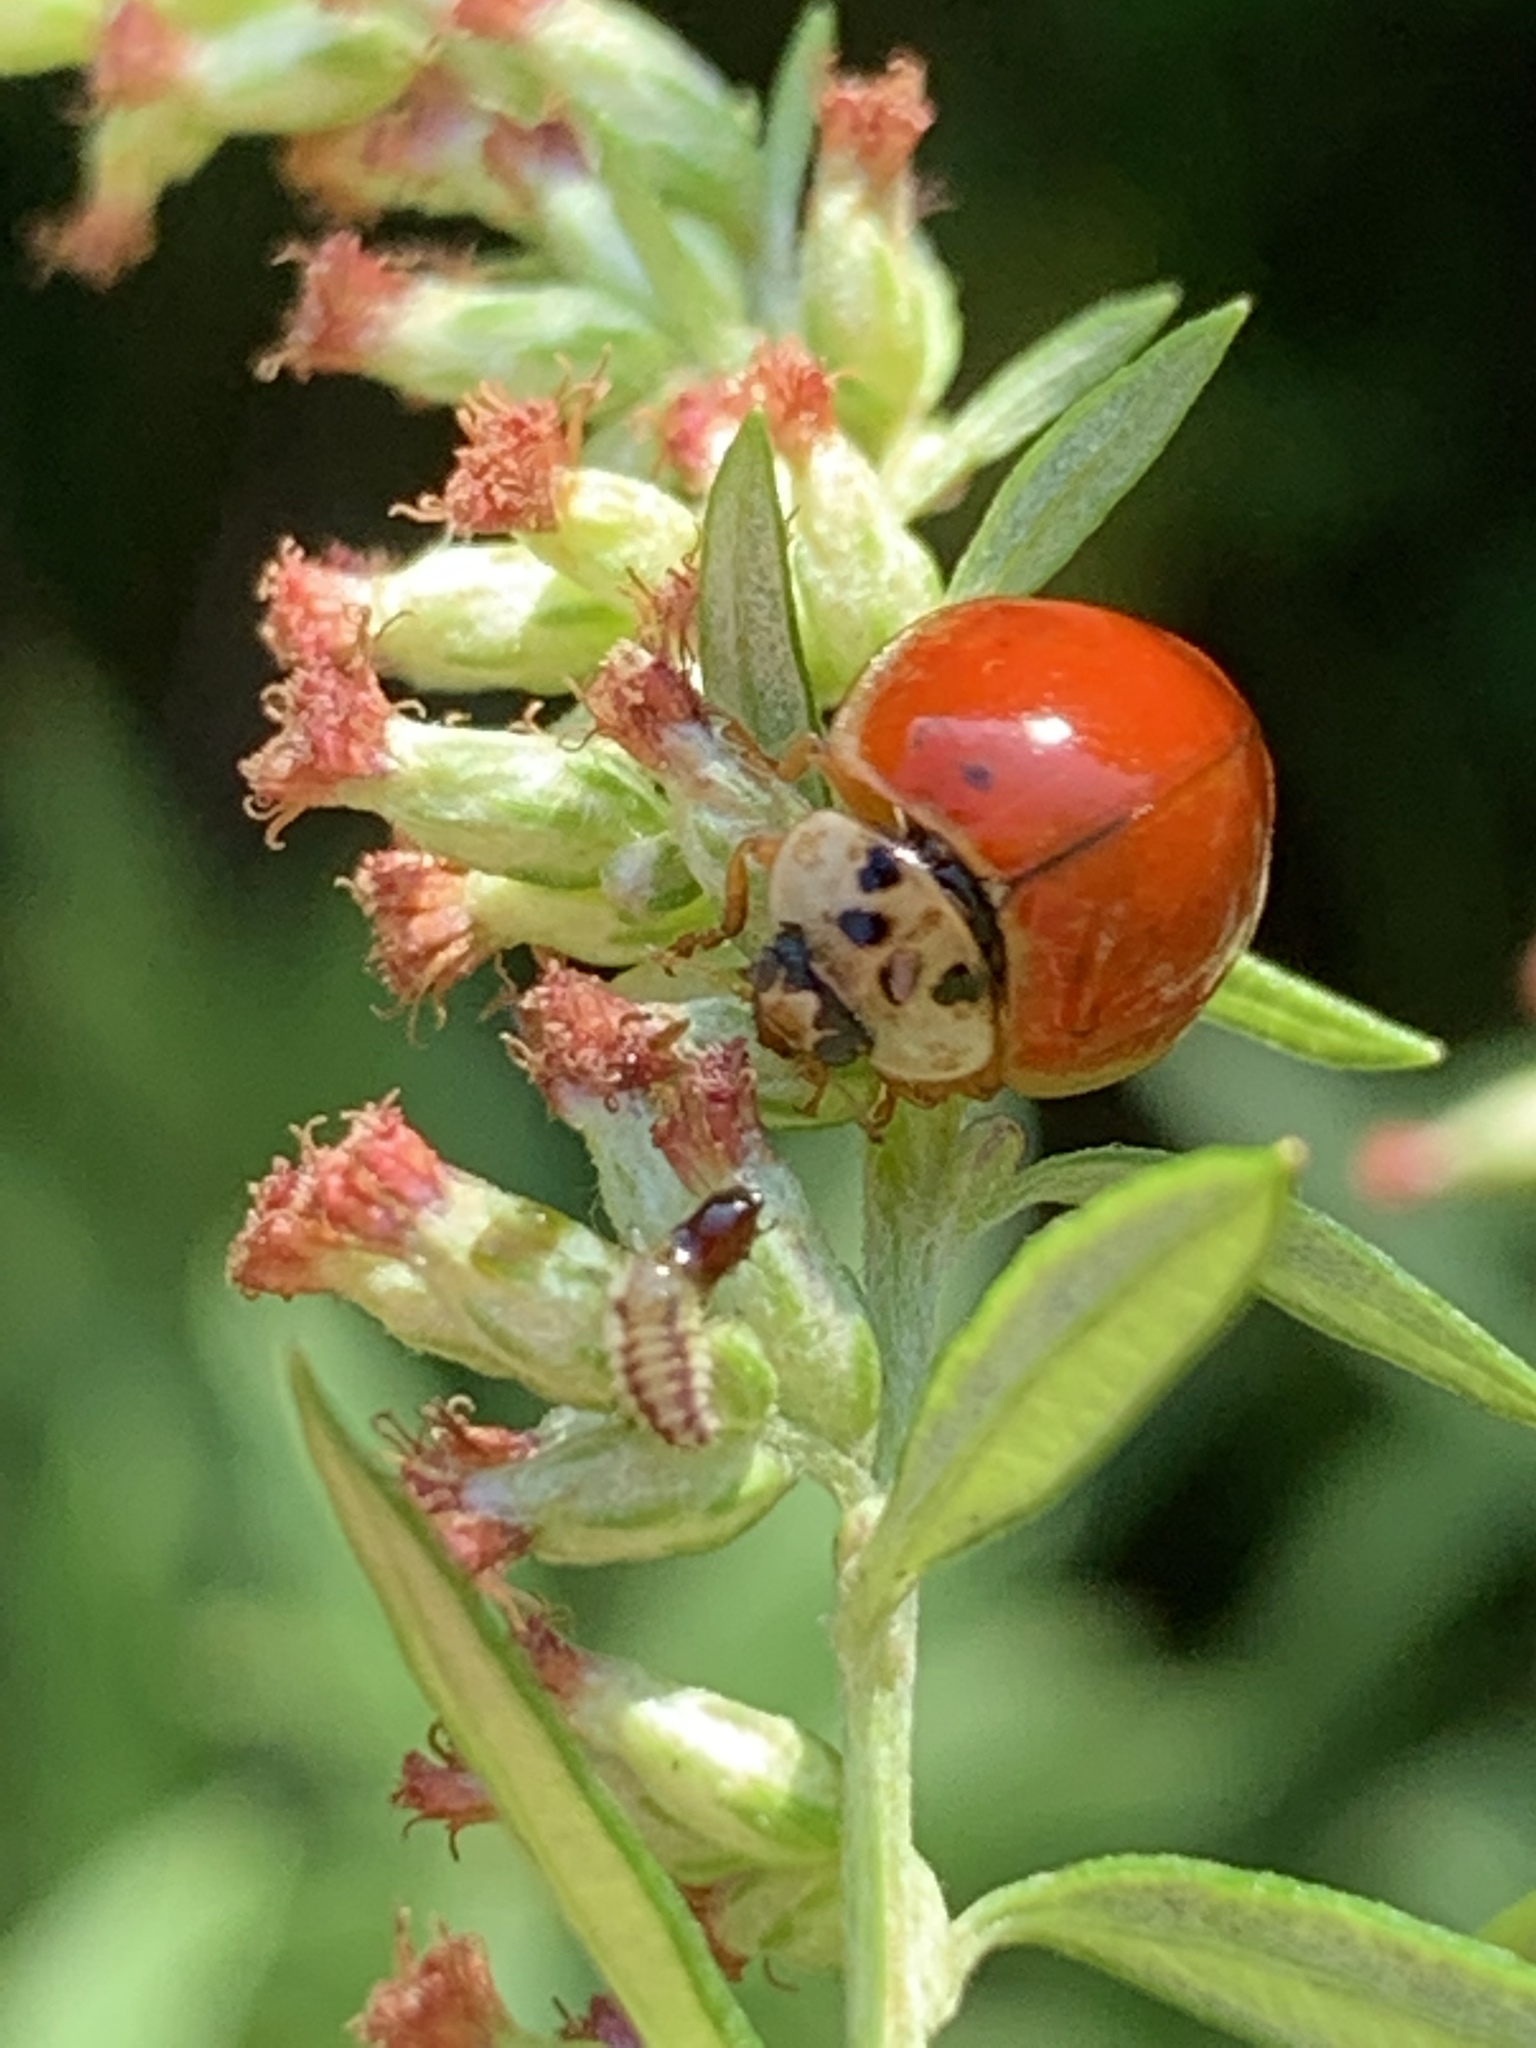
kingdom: Animalia
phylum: Arthropoda
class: Insecta
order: Coleoptera
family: Coccinellidae
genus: Harmonia
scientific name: Harmonia axyridis
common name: Harlequin ladybird
